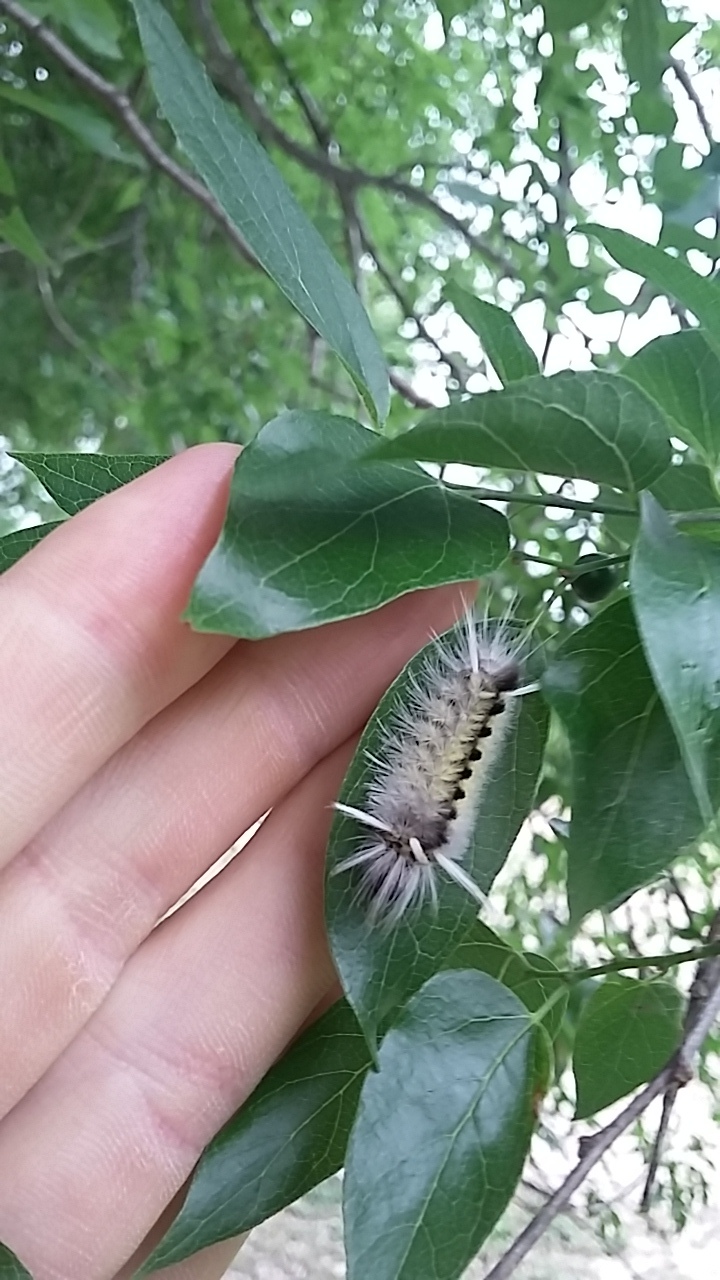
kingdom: Animalia
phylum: Arthropoda
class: Insecta
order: Lepidoptera
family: Erebidae
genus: Halysidota
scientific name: Halysidota schausi
